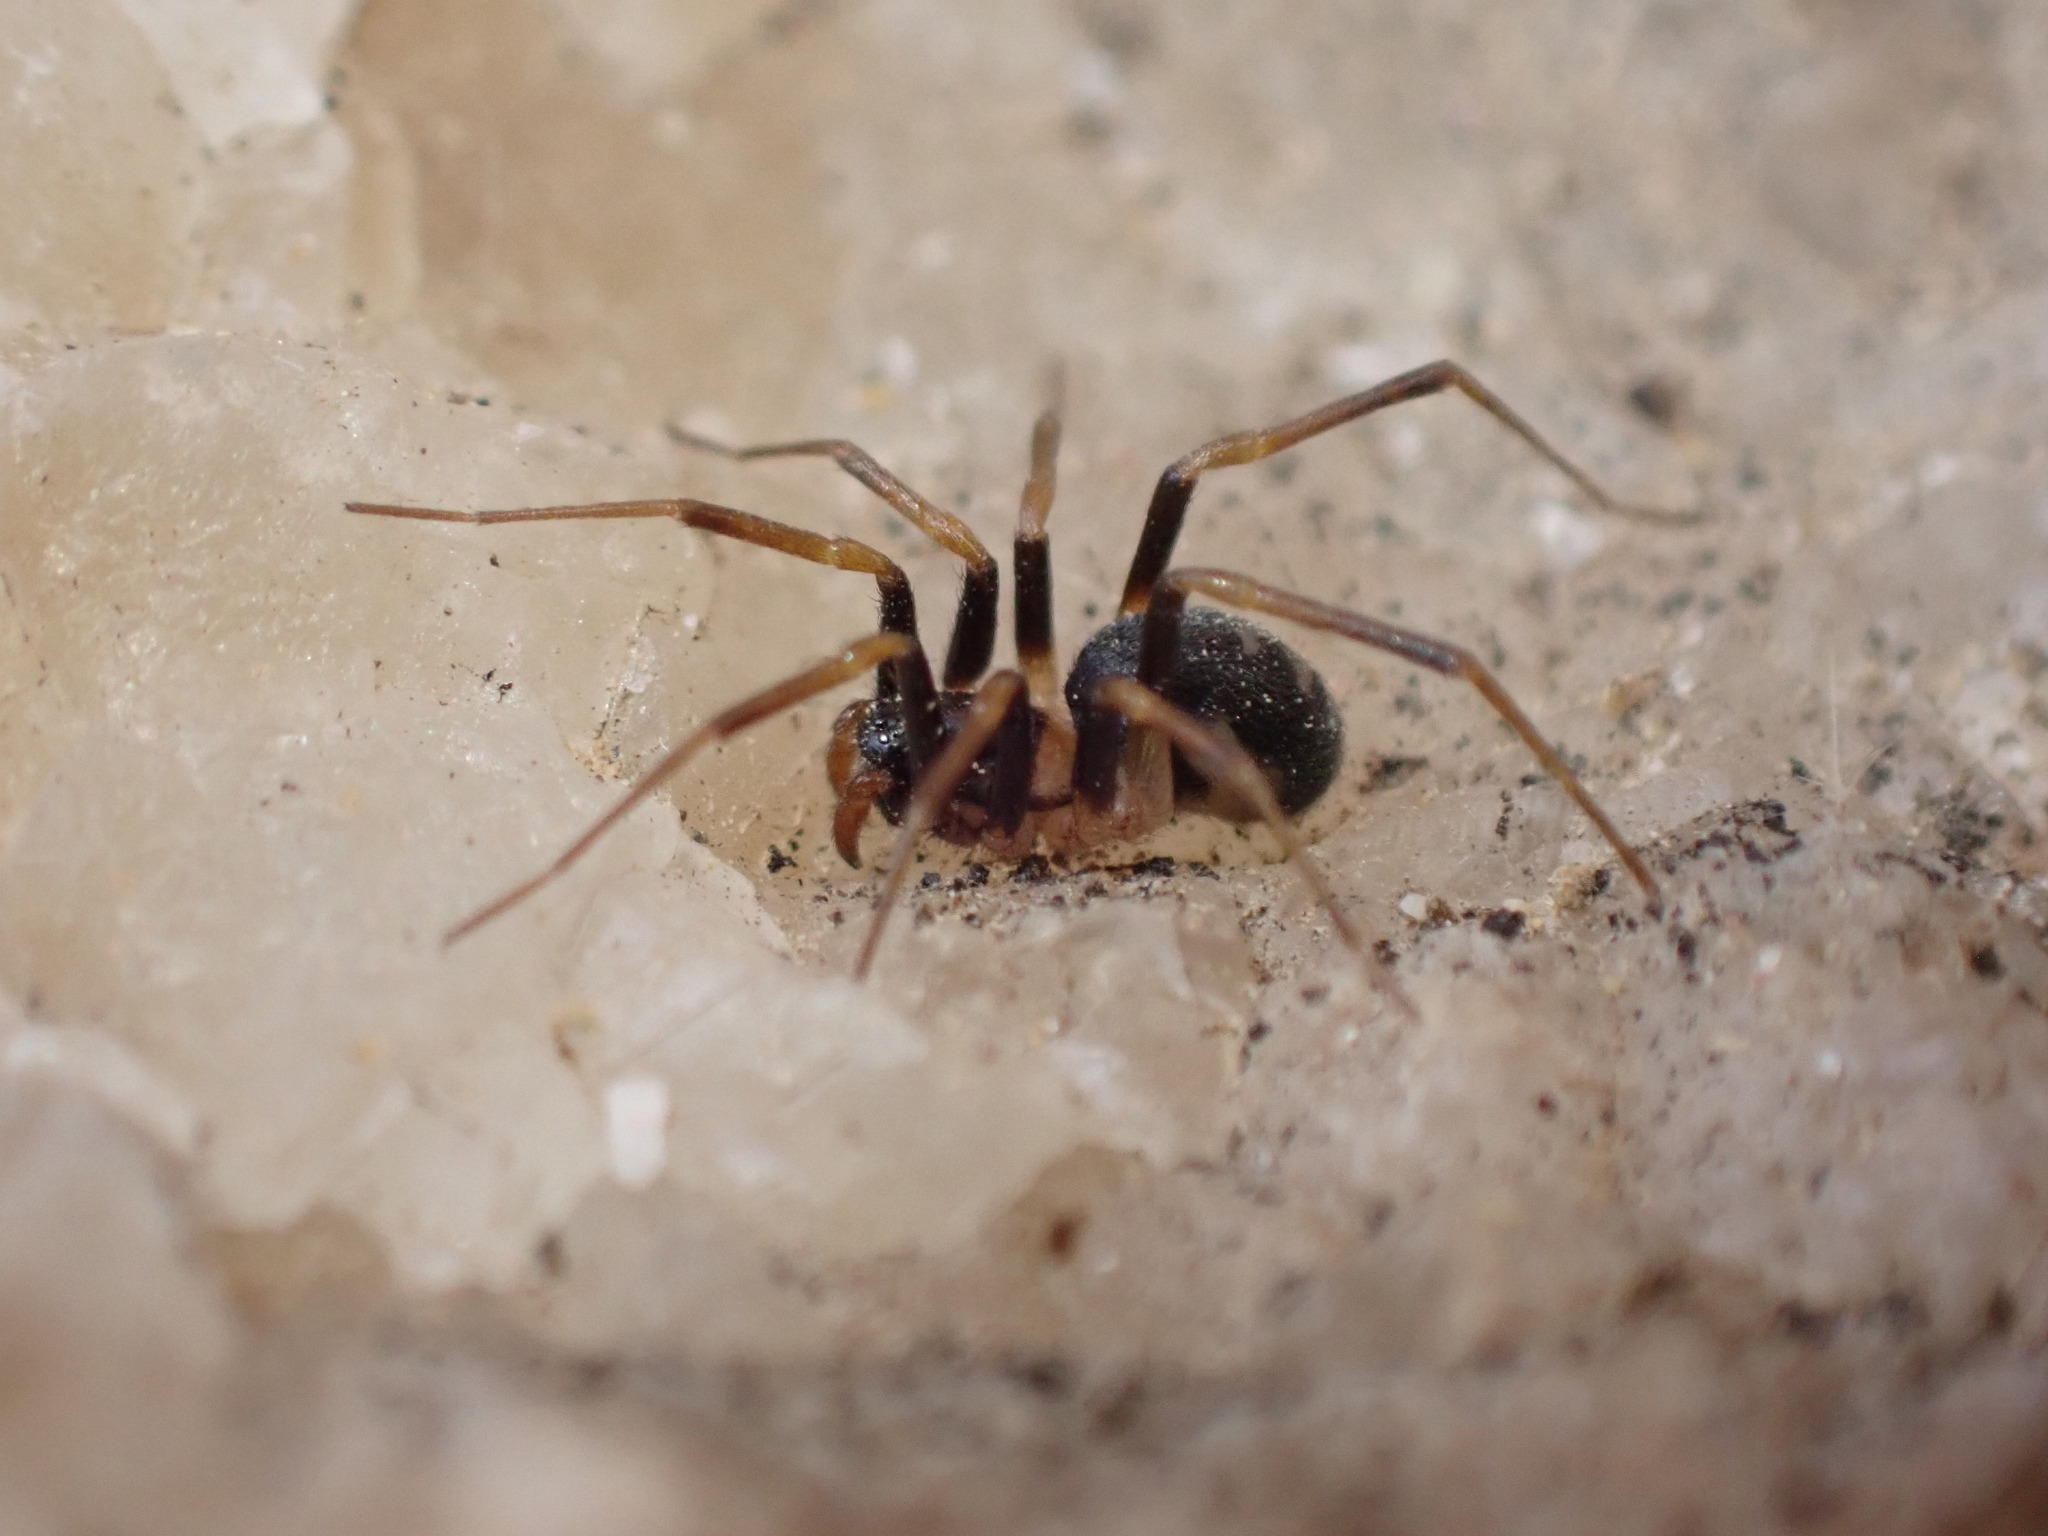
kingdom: Animalia
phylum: Arthropoda
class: Arachnida
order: Araneae
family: Zodariidae
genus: Zodarion
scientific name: Zodarion elegans
